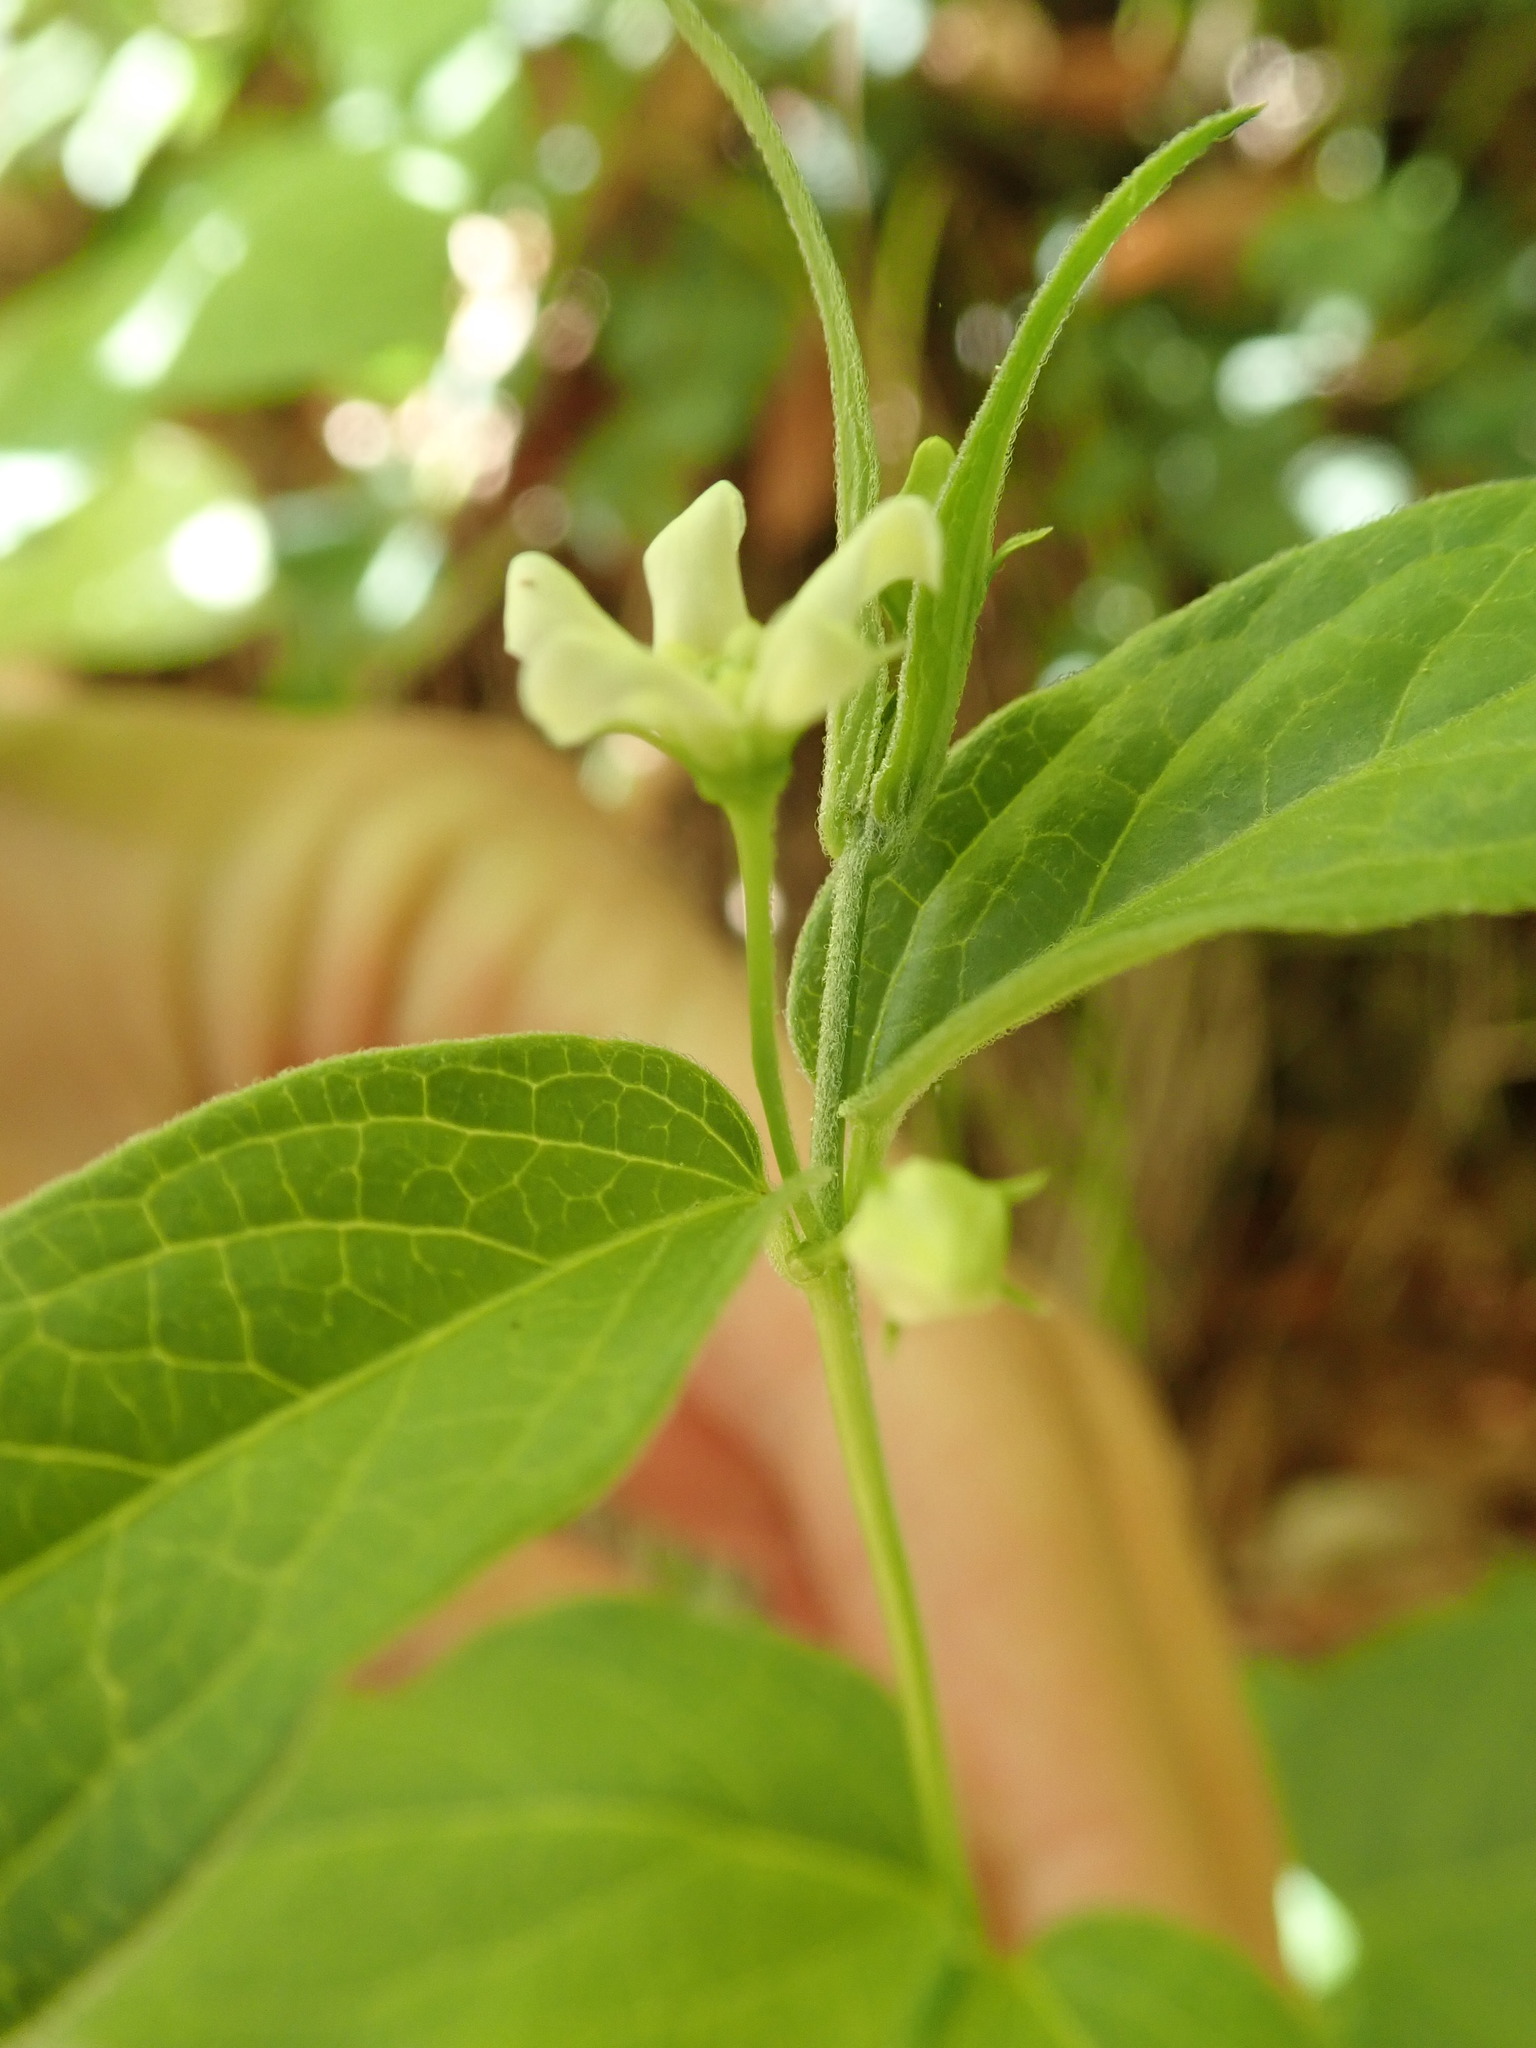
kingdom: Plantae
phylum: Tracheophyta
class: Magnoliopsida
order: Gentianales
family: Apocynaceae
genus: Vincetoxicum
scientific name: Vincetoxicum hirundinaria
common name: White swallowwort
